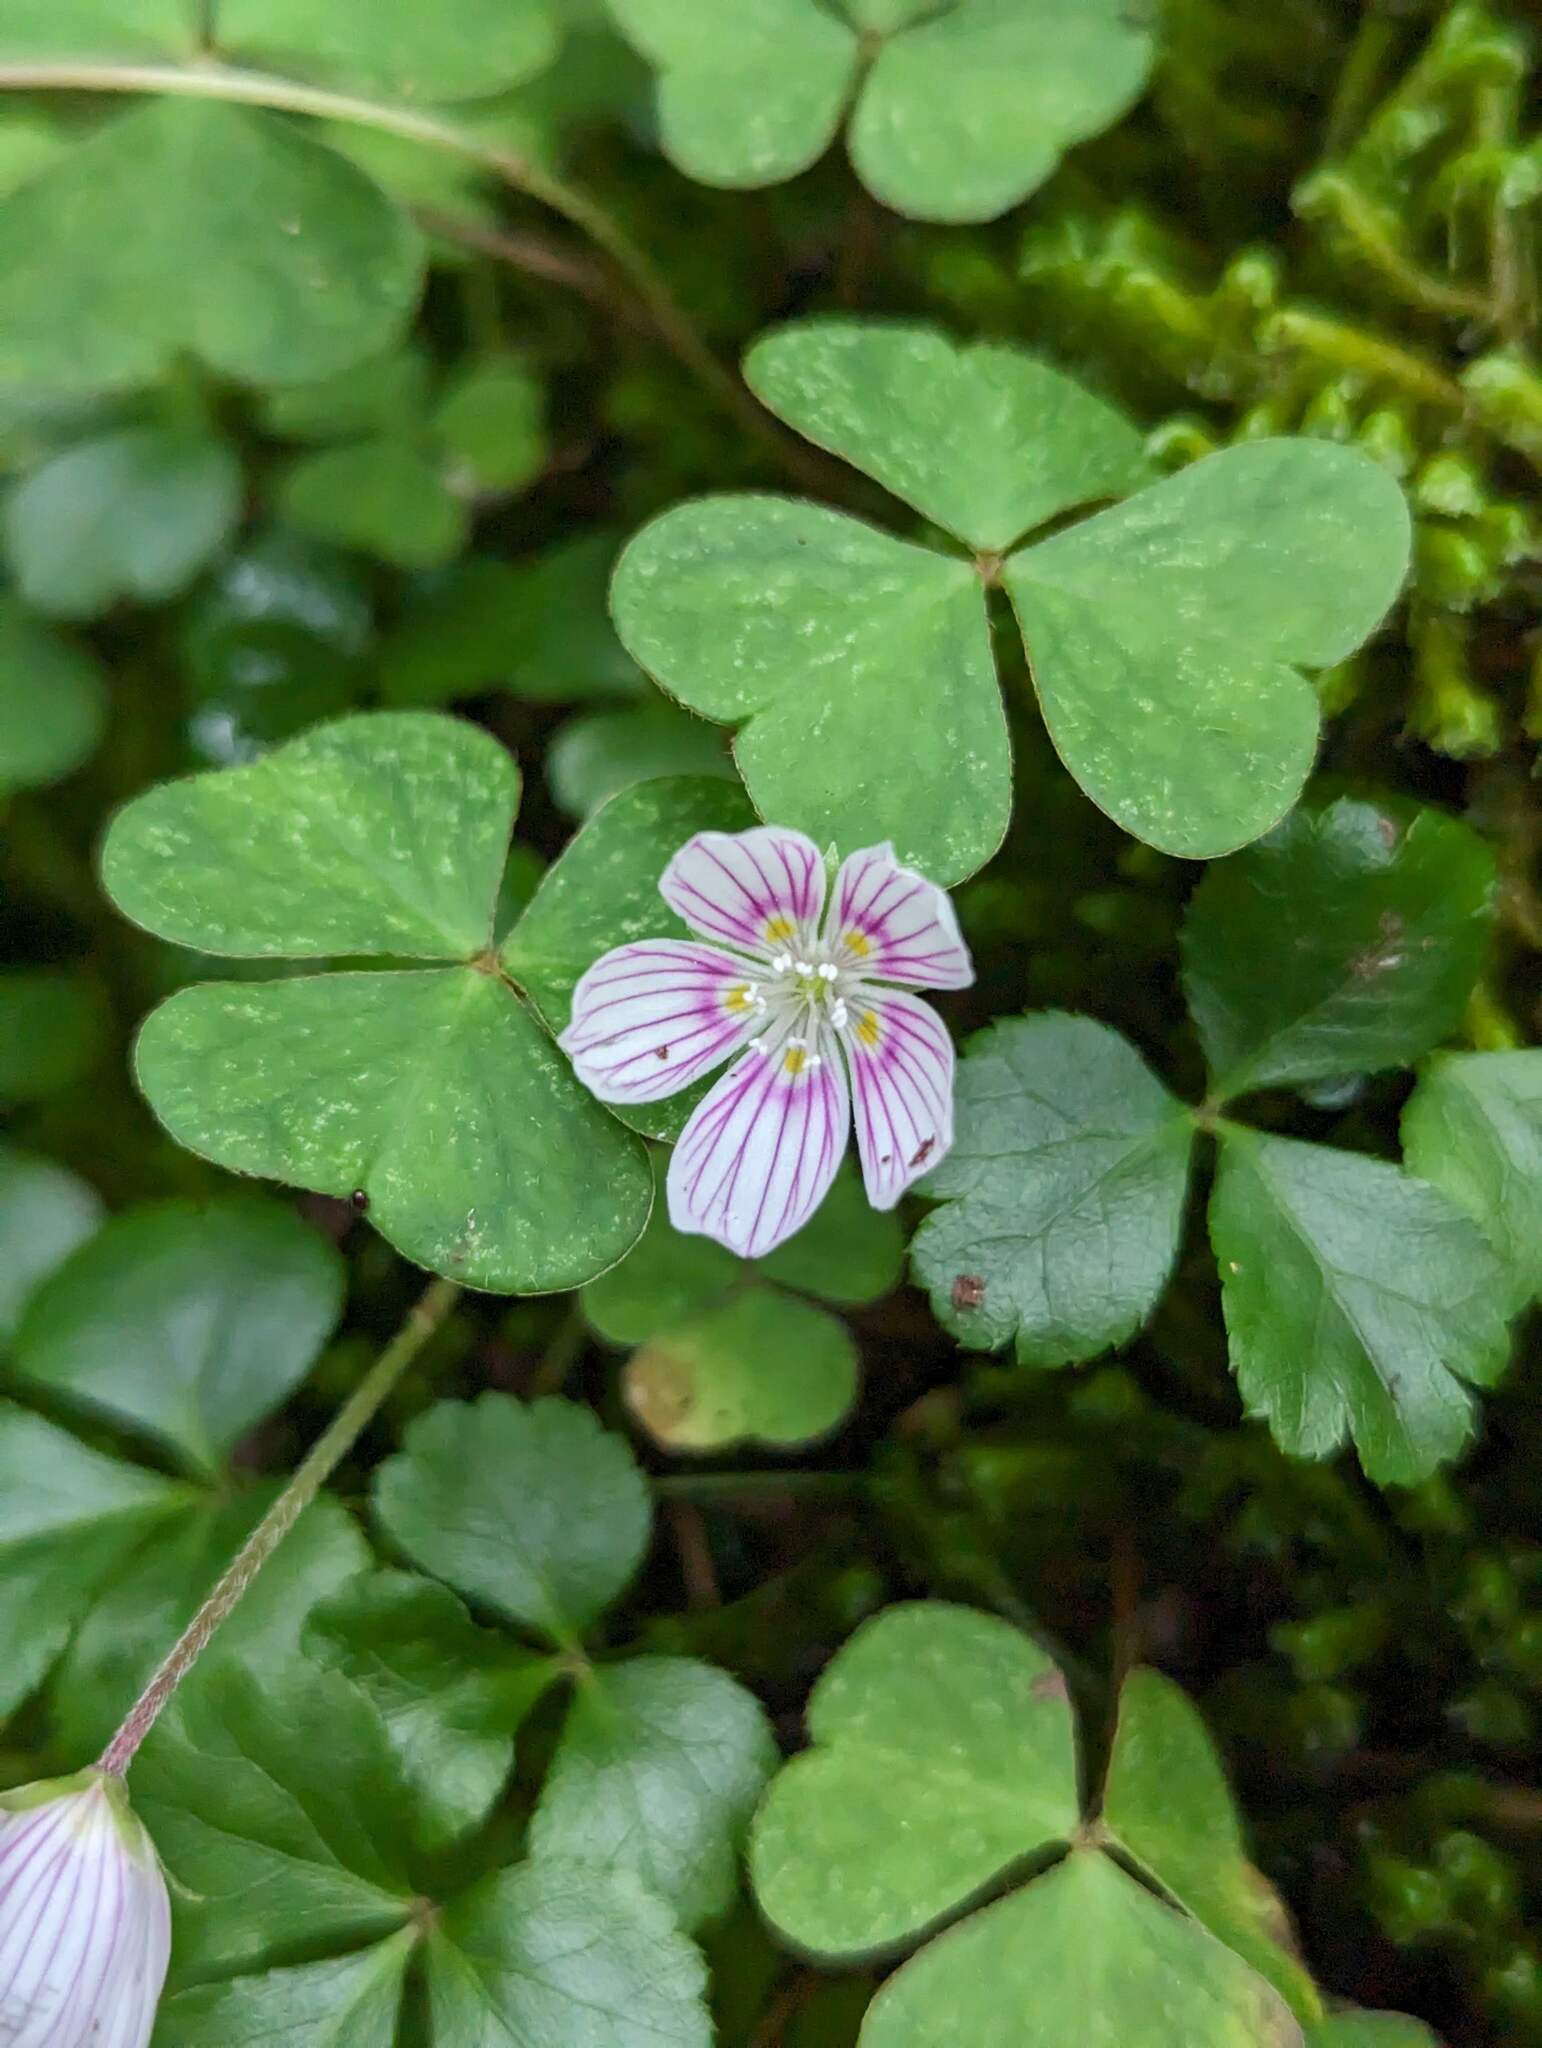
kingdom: Plantae
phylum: Tracheophyta
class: Magnoliopsida
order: Oxalidales
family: Oxalidaceae
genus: Oxalis
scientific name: Oxalis montana
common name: American wood-sorrel
